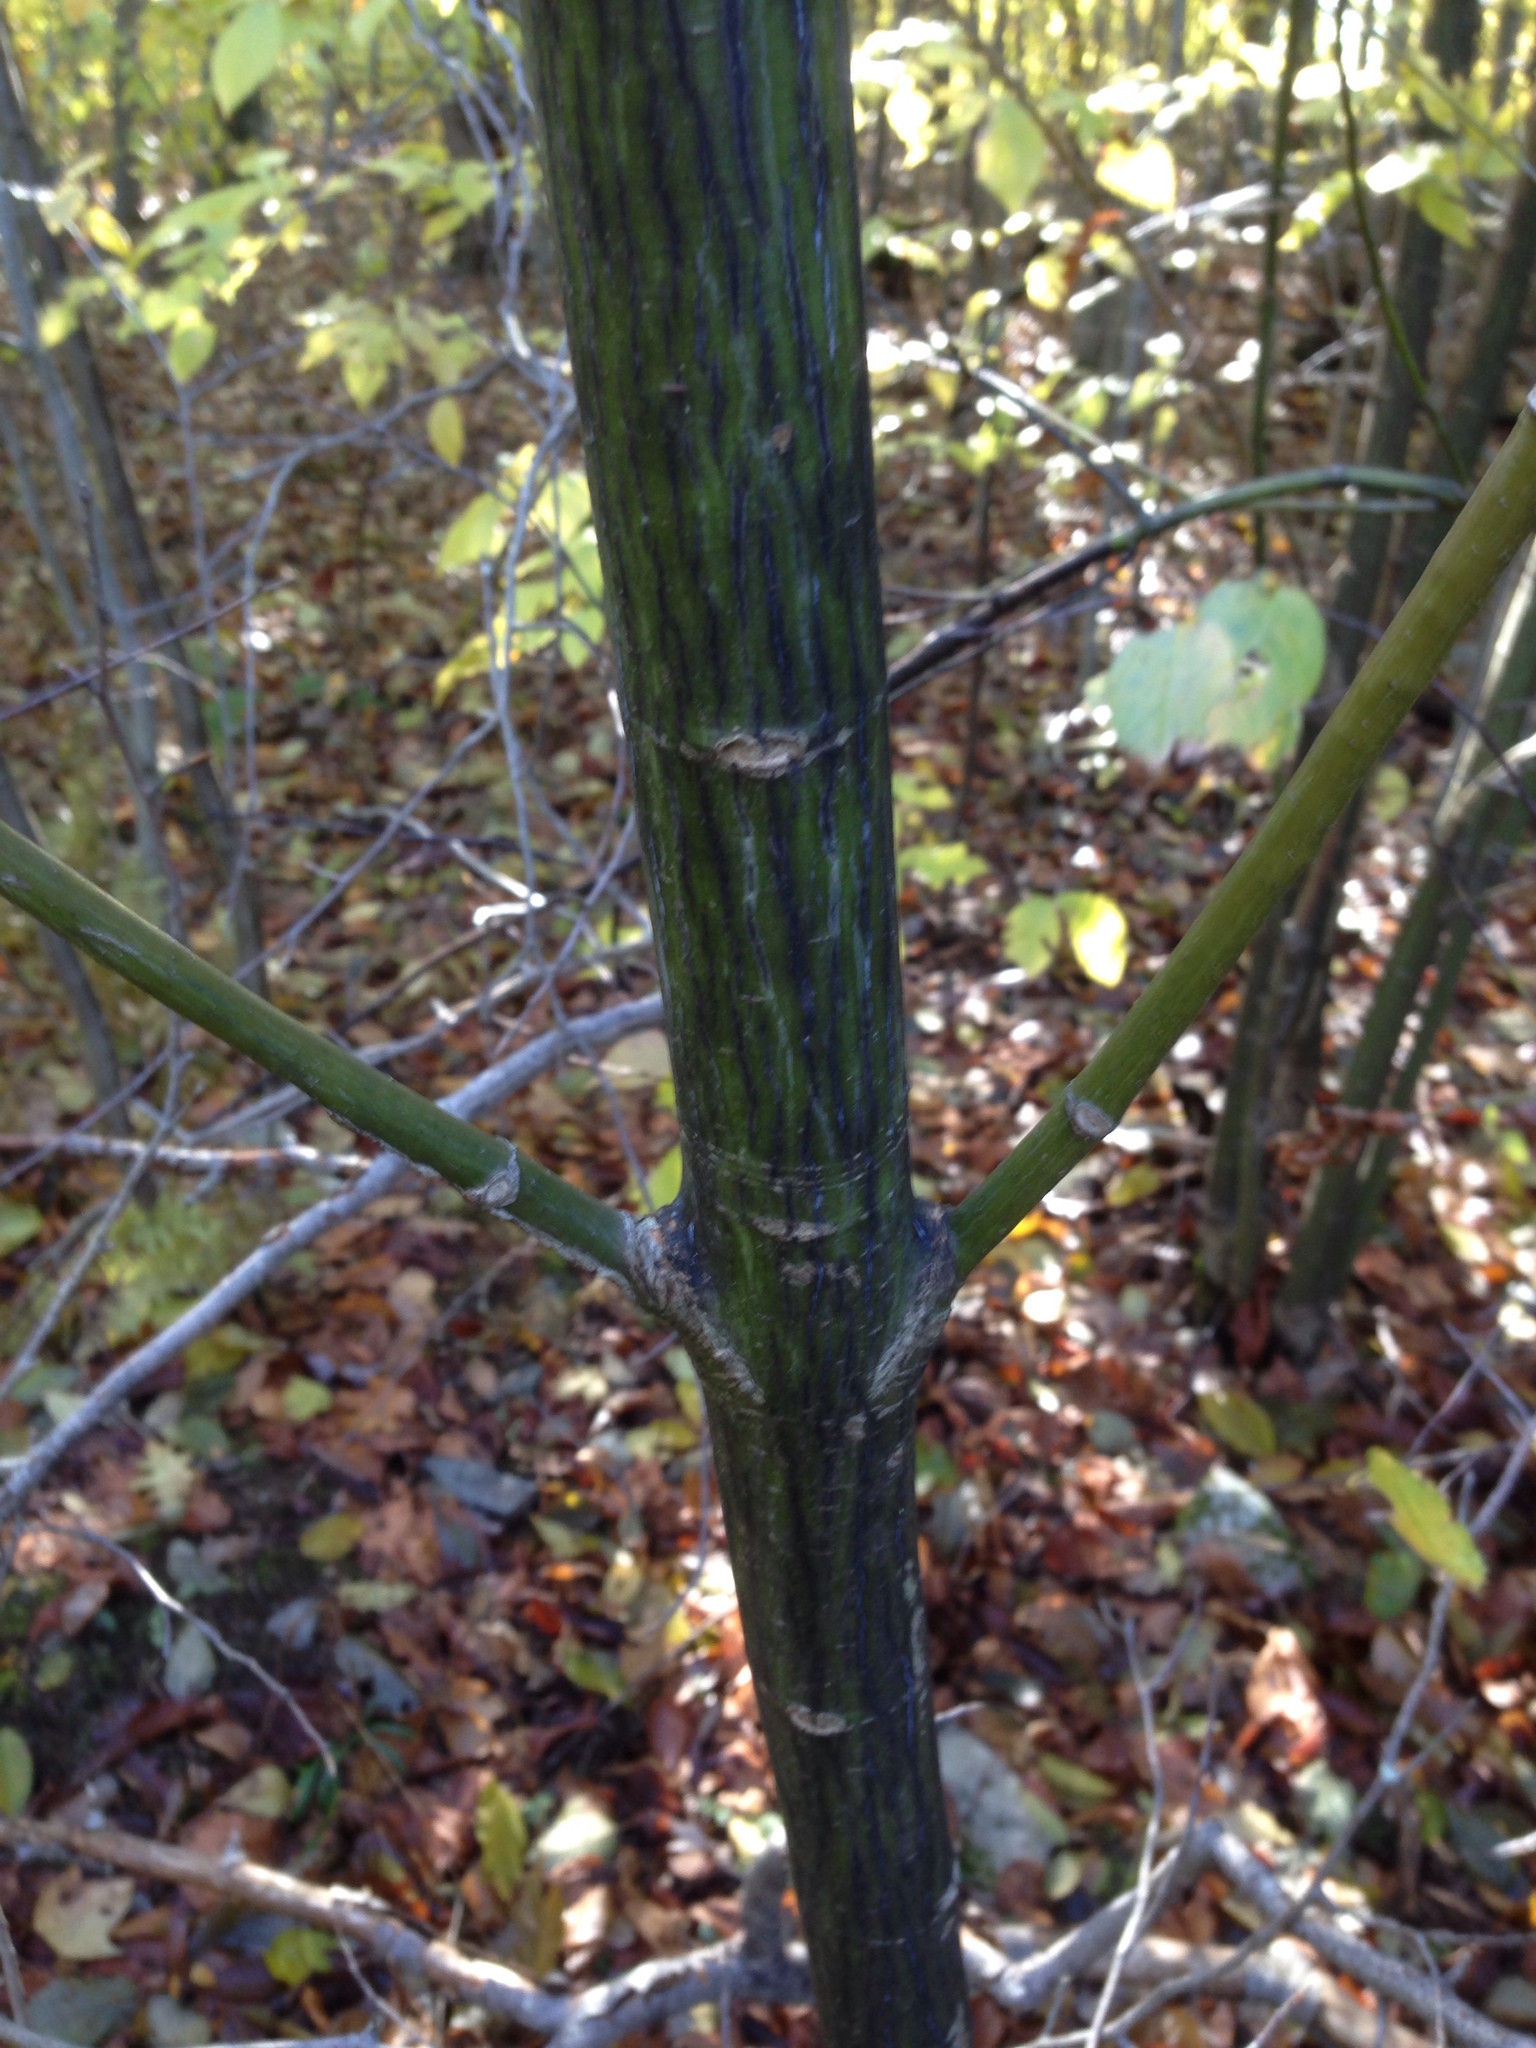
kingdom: Plantae
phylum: Tracheophyta
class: Magnoliopsida
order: Sapindales
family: Sapindaceae
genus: Acer
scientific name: Acer pensylvanicum
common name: Moosewood
